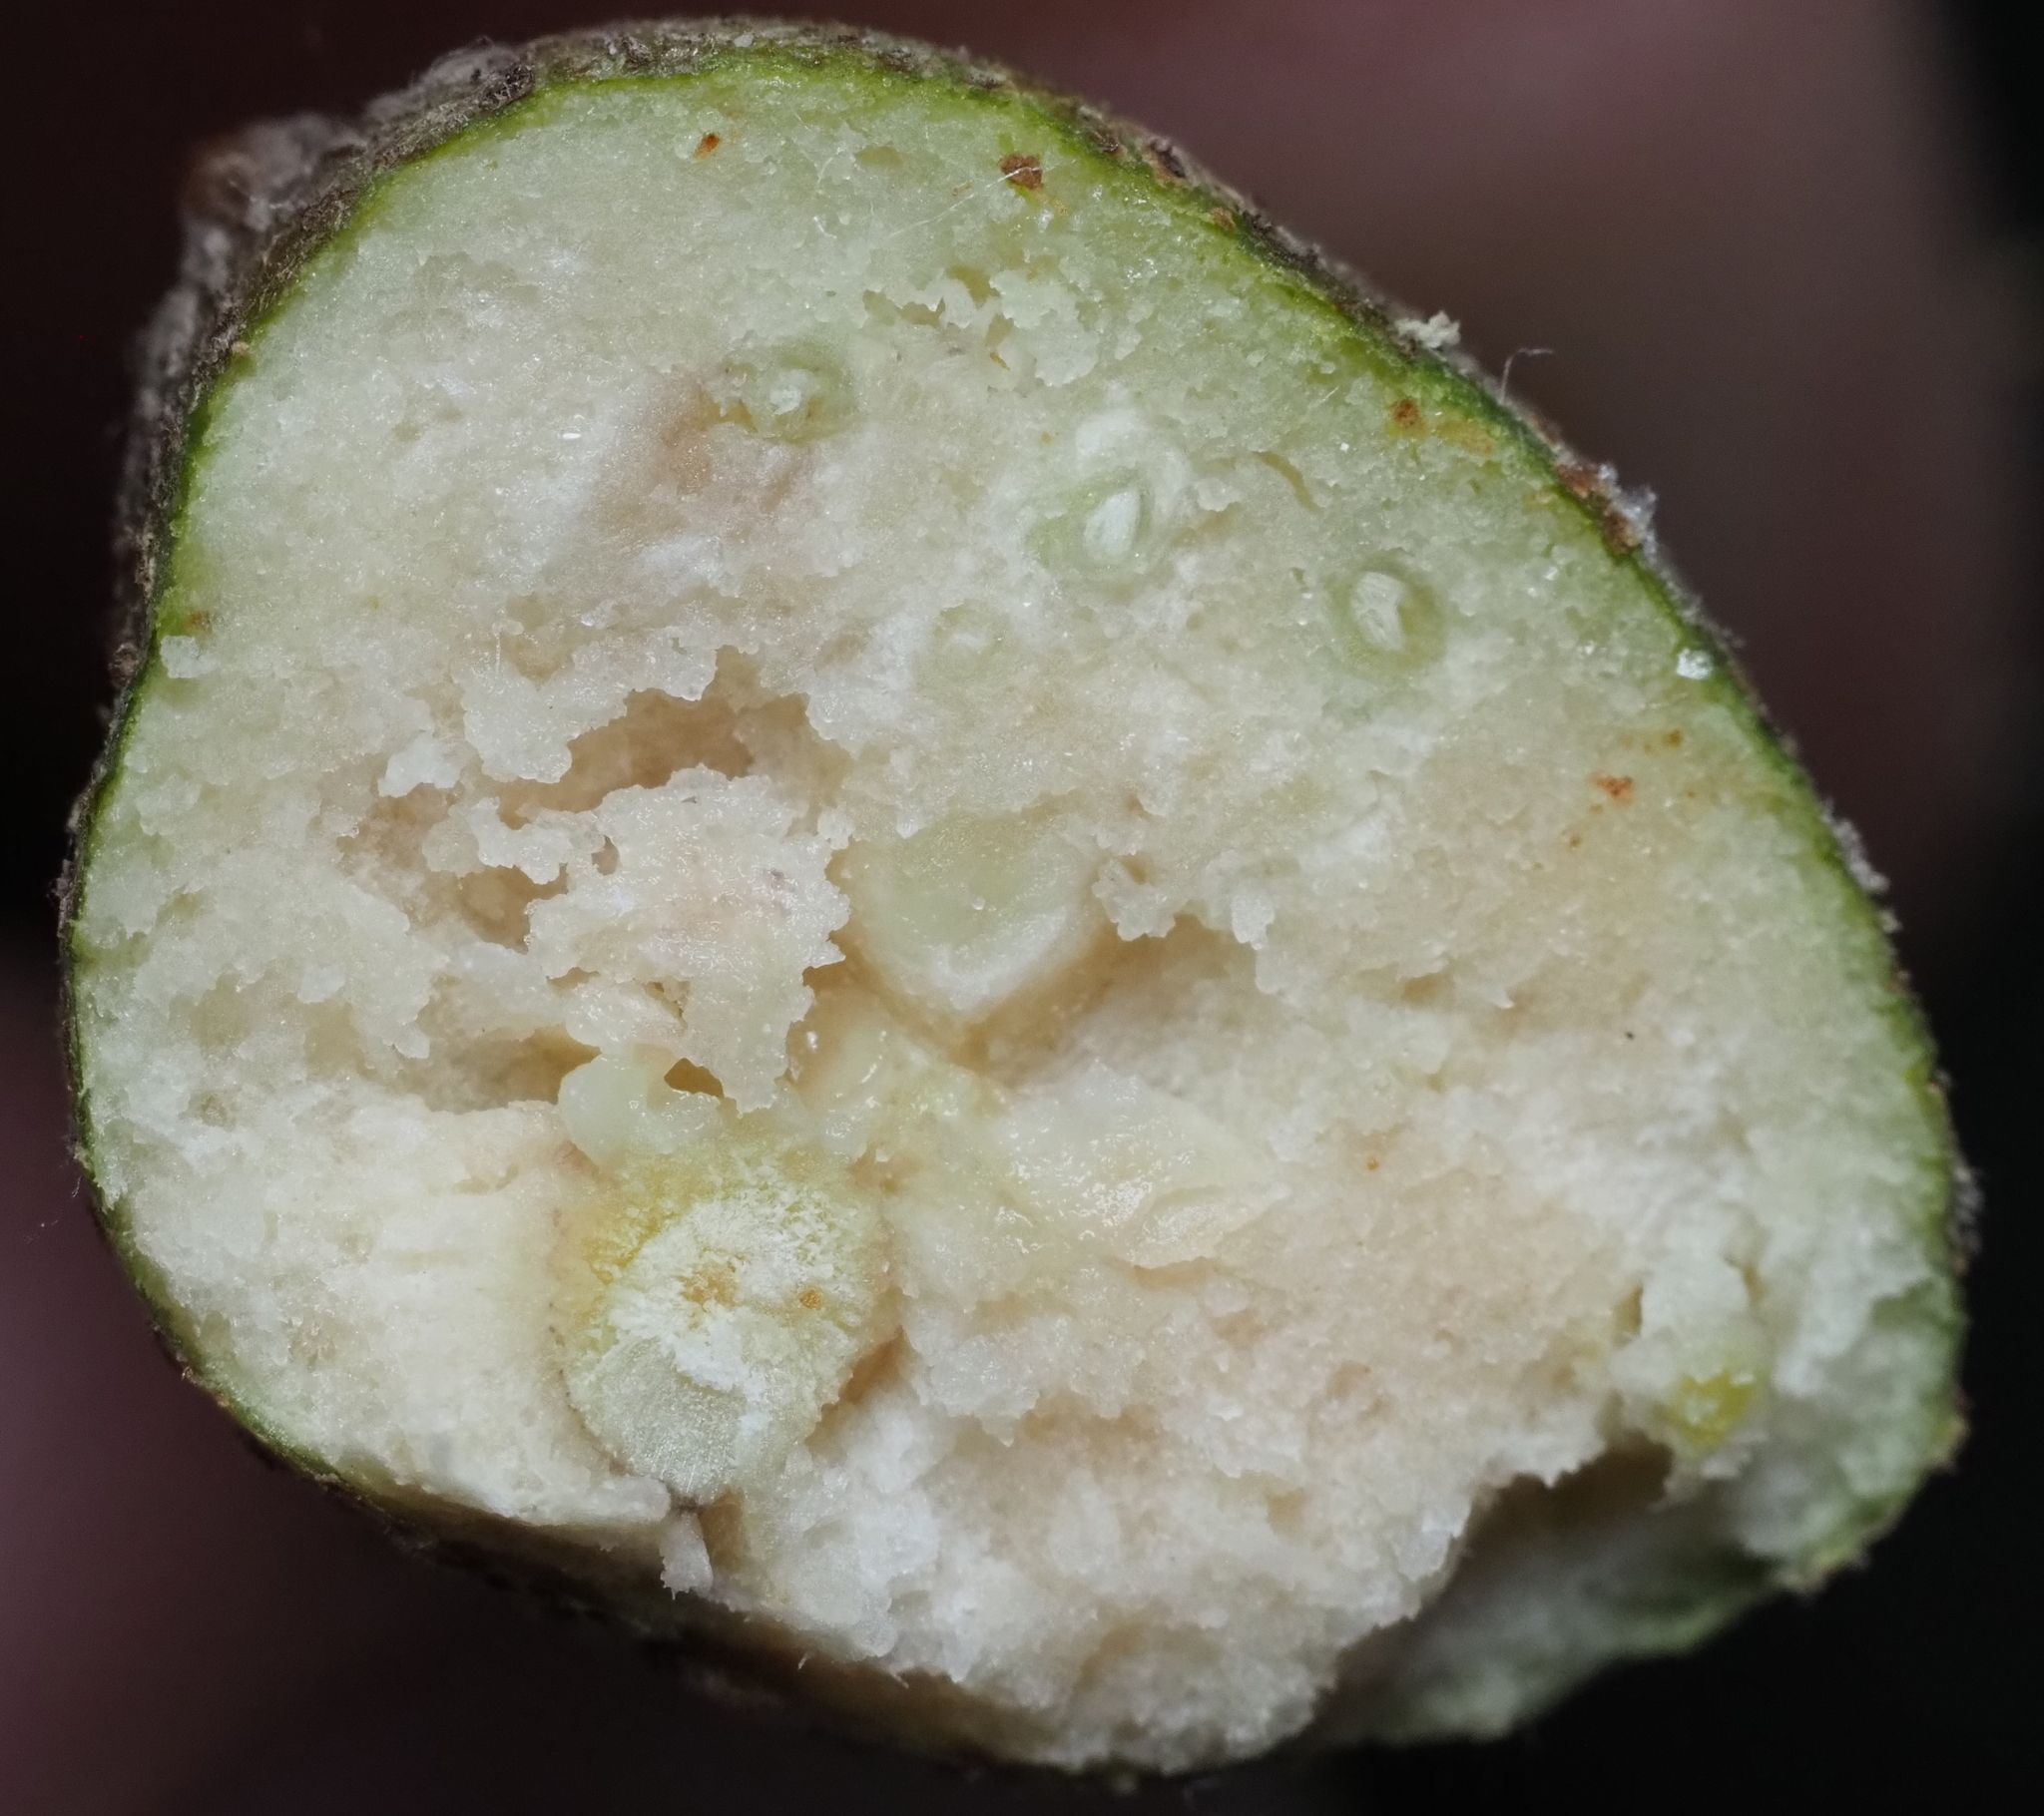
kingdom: Animalia
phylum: Arthropoda
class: Insecta
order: Hymenoptera
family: Cynipidae
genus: Callirhytis
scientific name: Callirhytis
